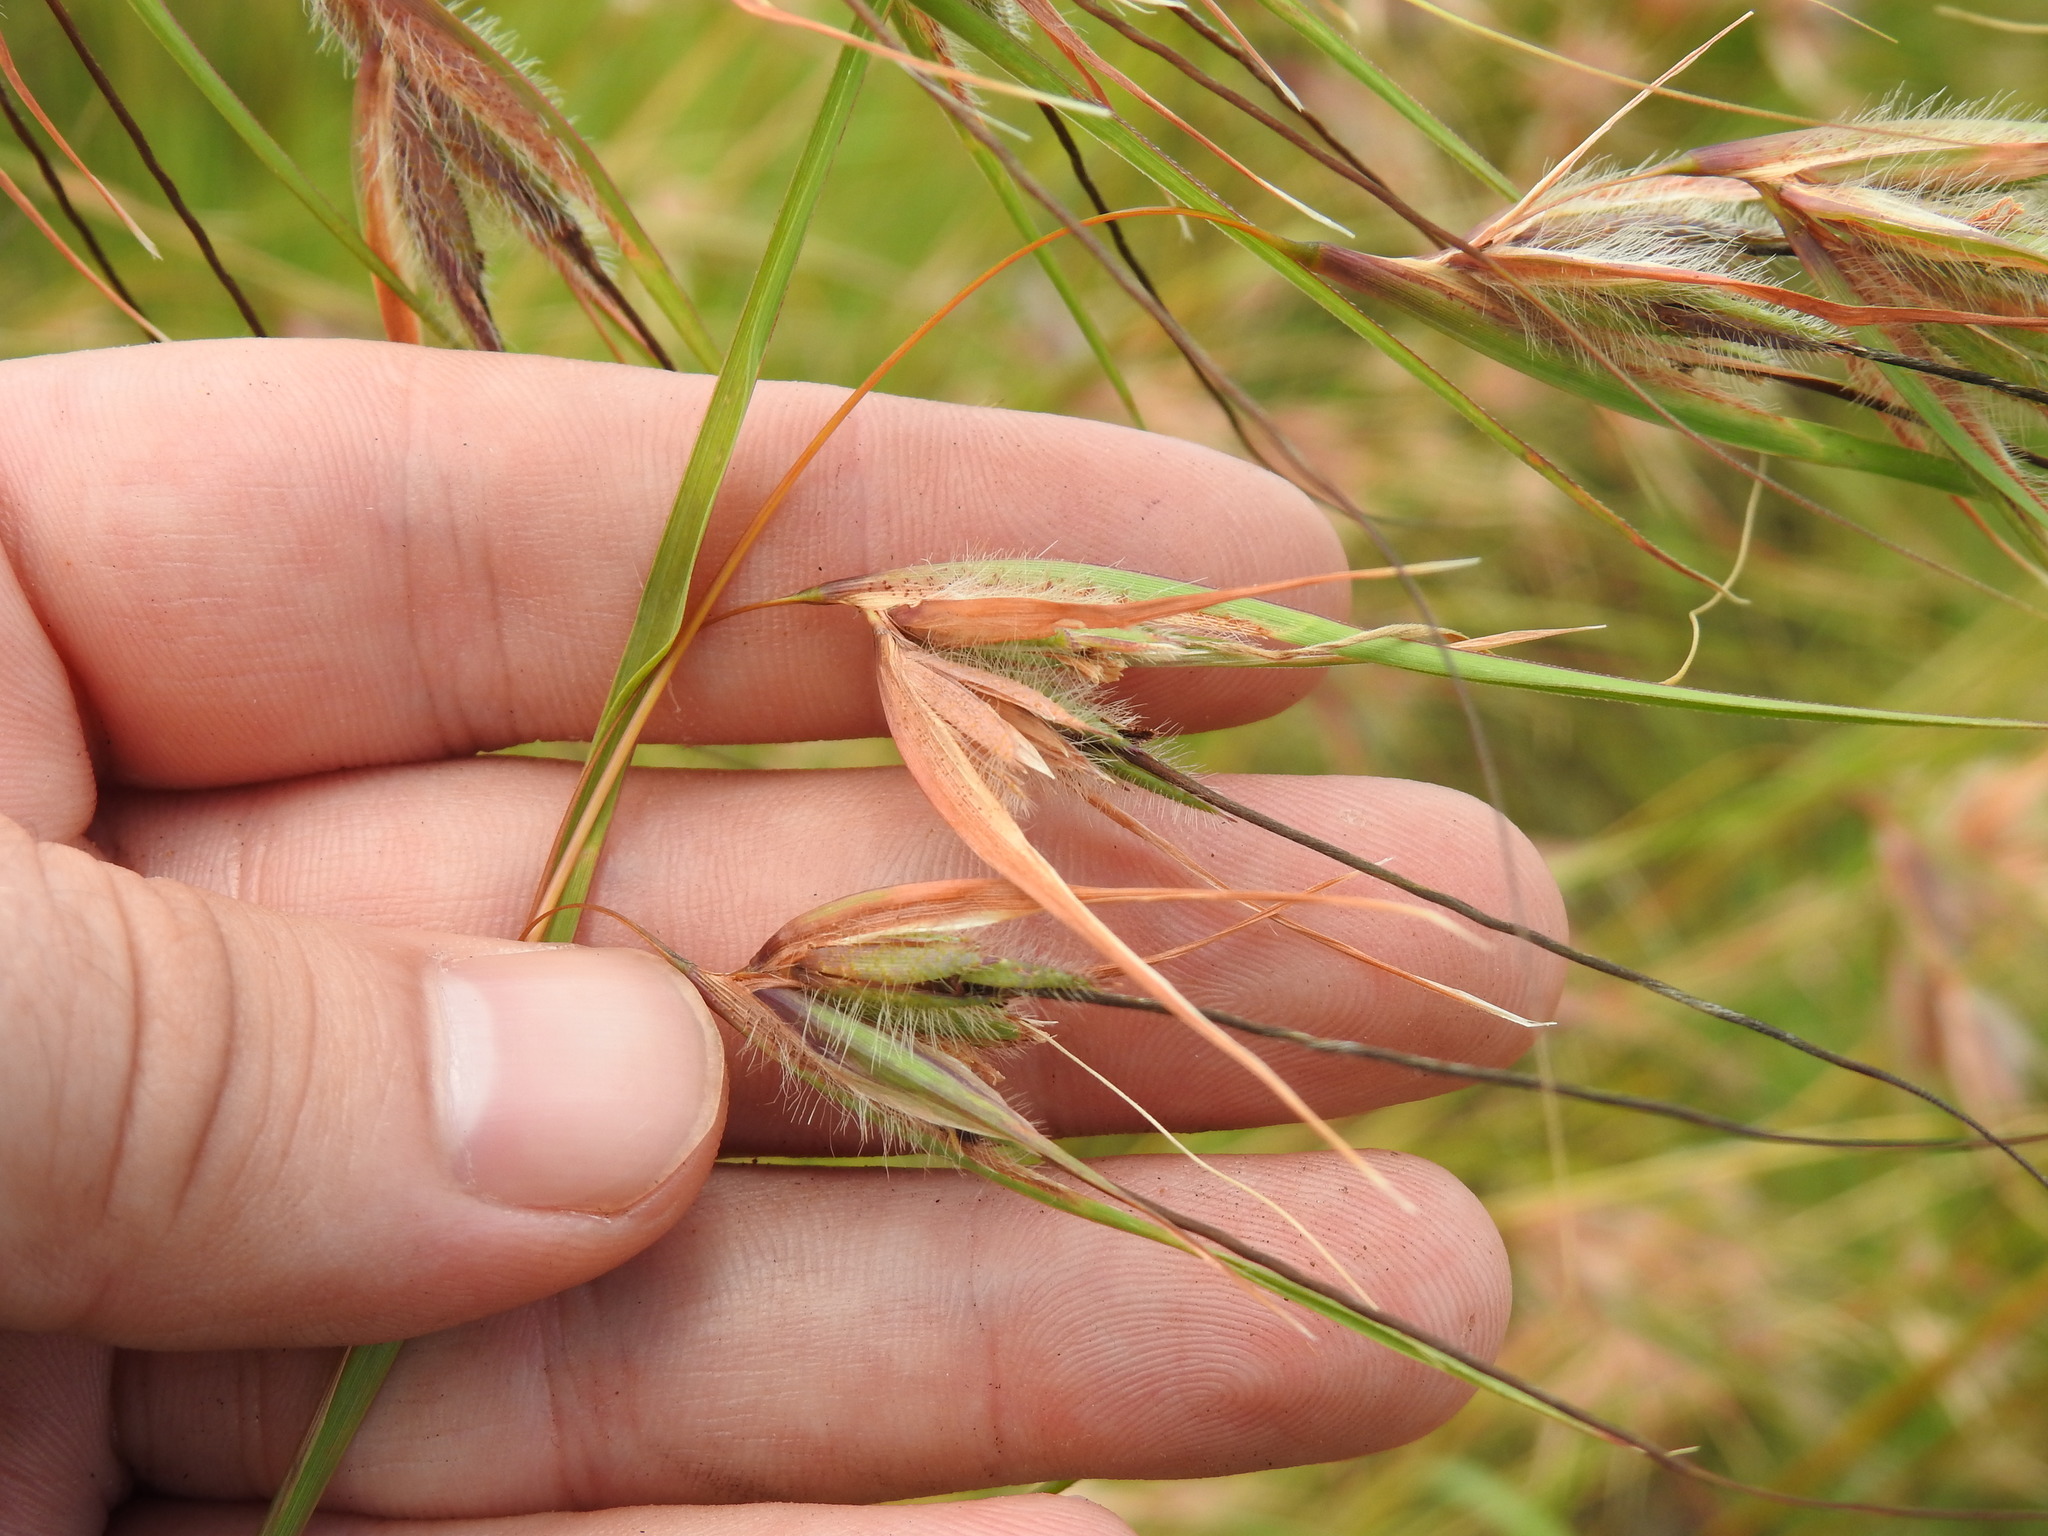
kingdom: Plantae
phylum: Tracheophyta
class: Liliopsida
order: Poales
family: Poaceae
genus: Themeda
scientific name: Themeda triandra
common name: Kangaroo grass
